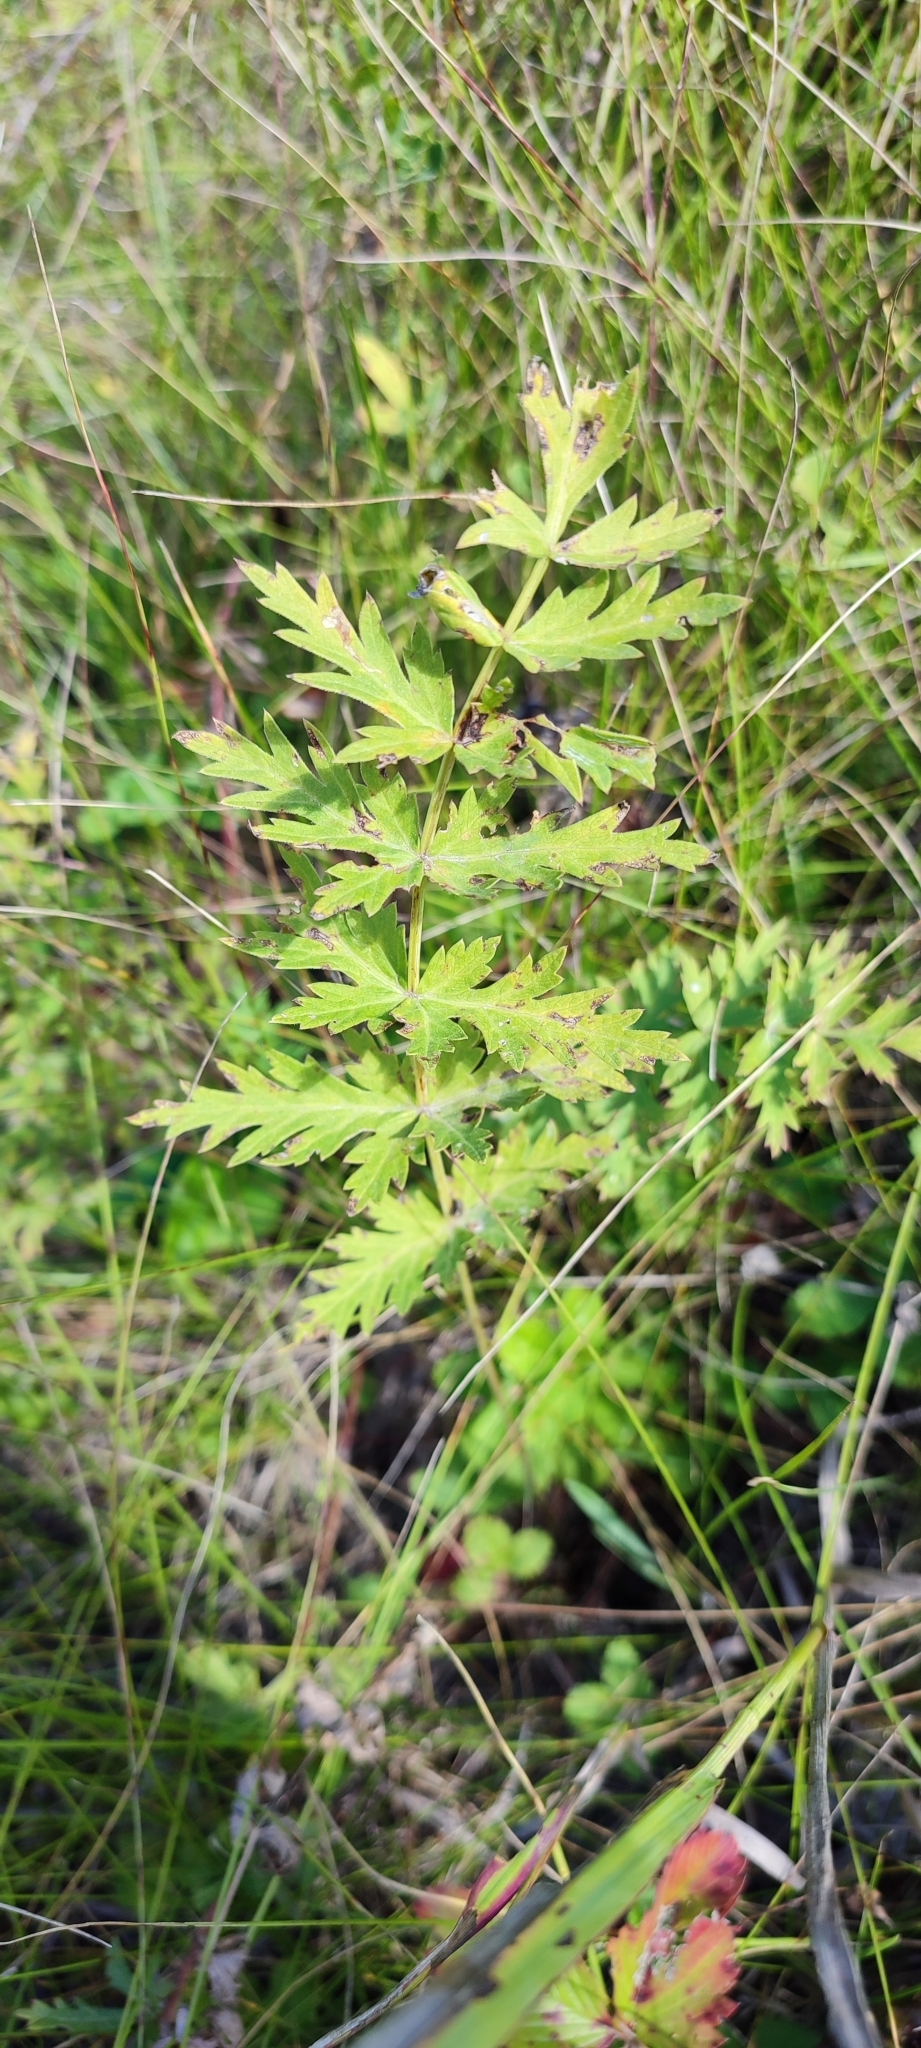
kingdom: Plantae
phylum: Tracheophyta
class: Magnoliopsida
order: Apiales
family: Apiaceae
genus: Seseli
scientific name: Seseli libanotis
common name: Mooncarrot
